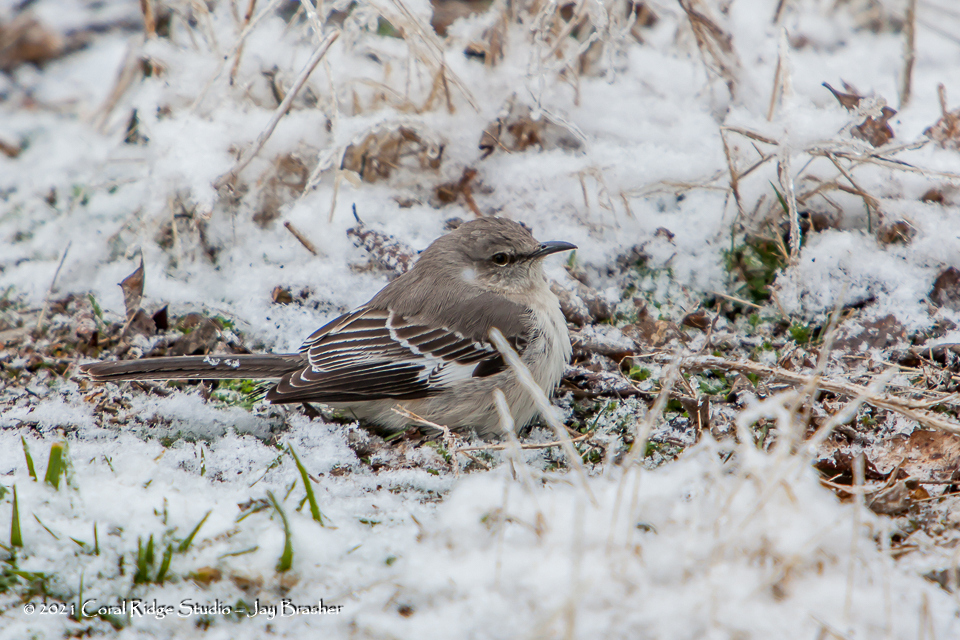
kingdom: Animalia
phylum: Chordata
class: Aves
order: Passeriformes
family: Mimidae
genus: Mimus
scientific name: Mimus polyglottos
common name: Northern mockingbird
